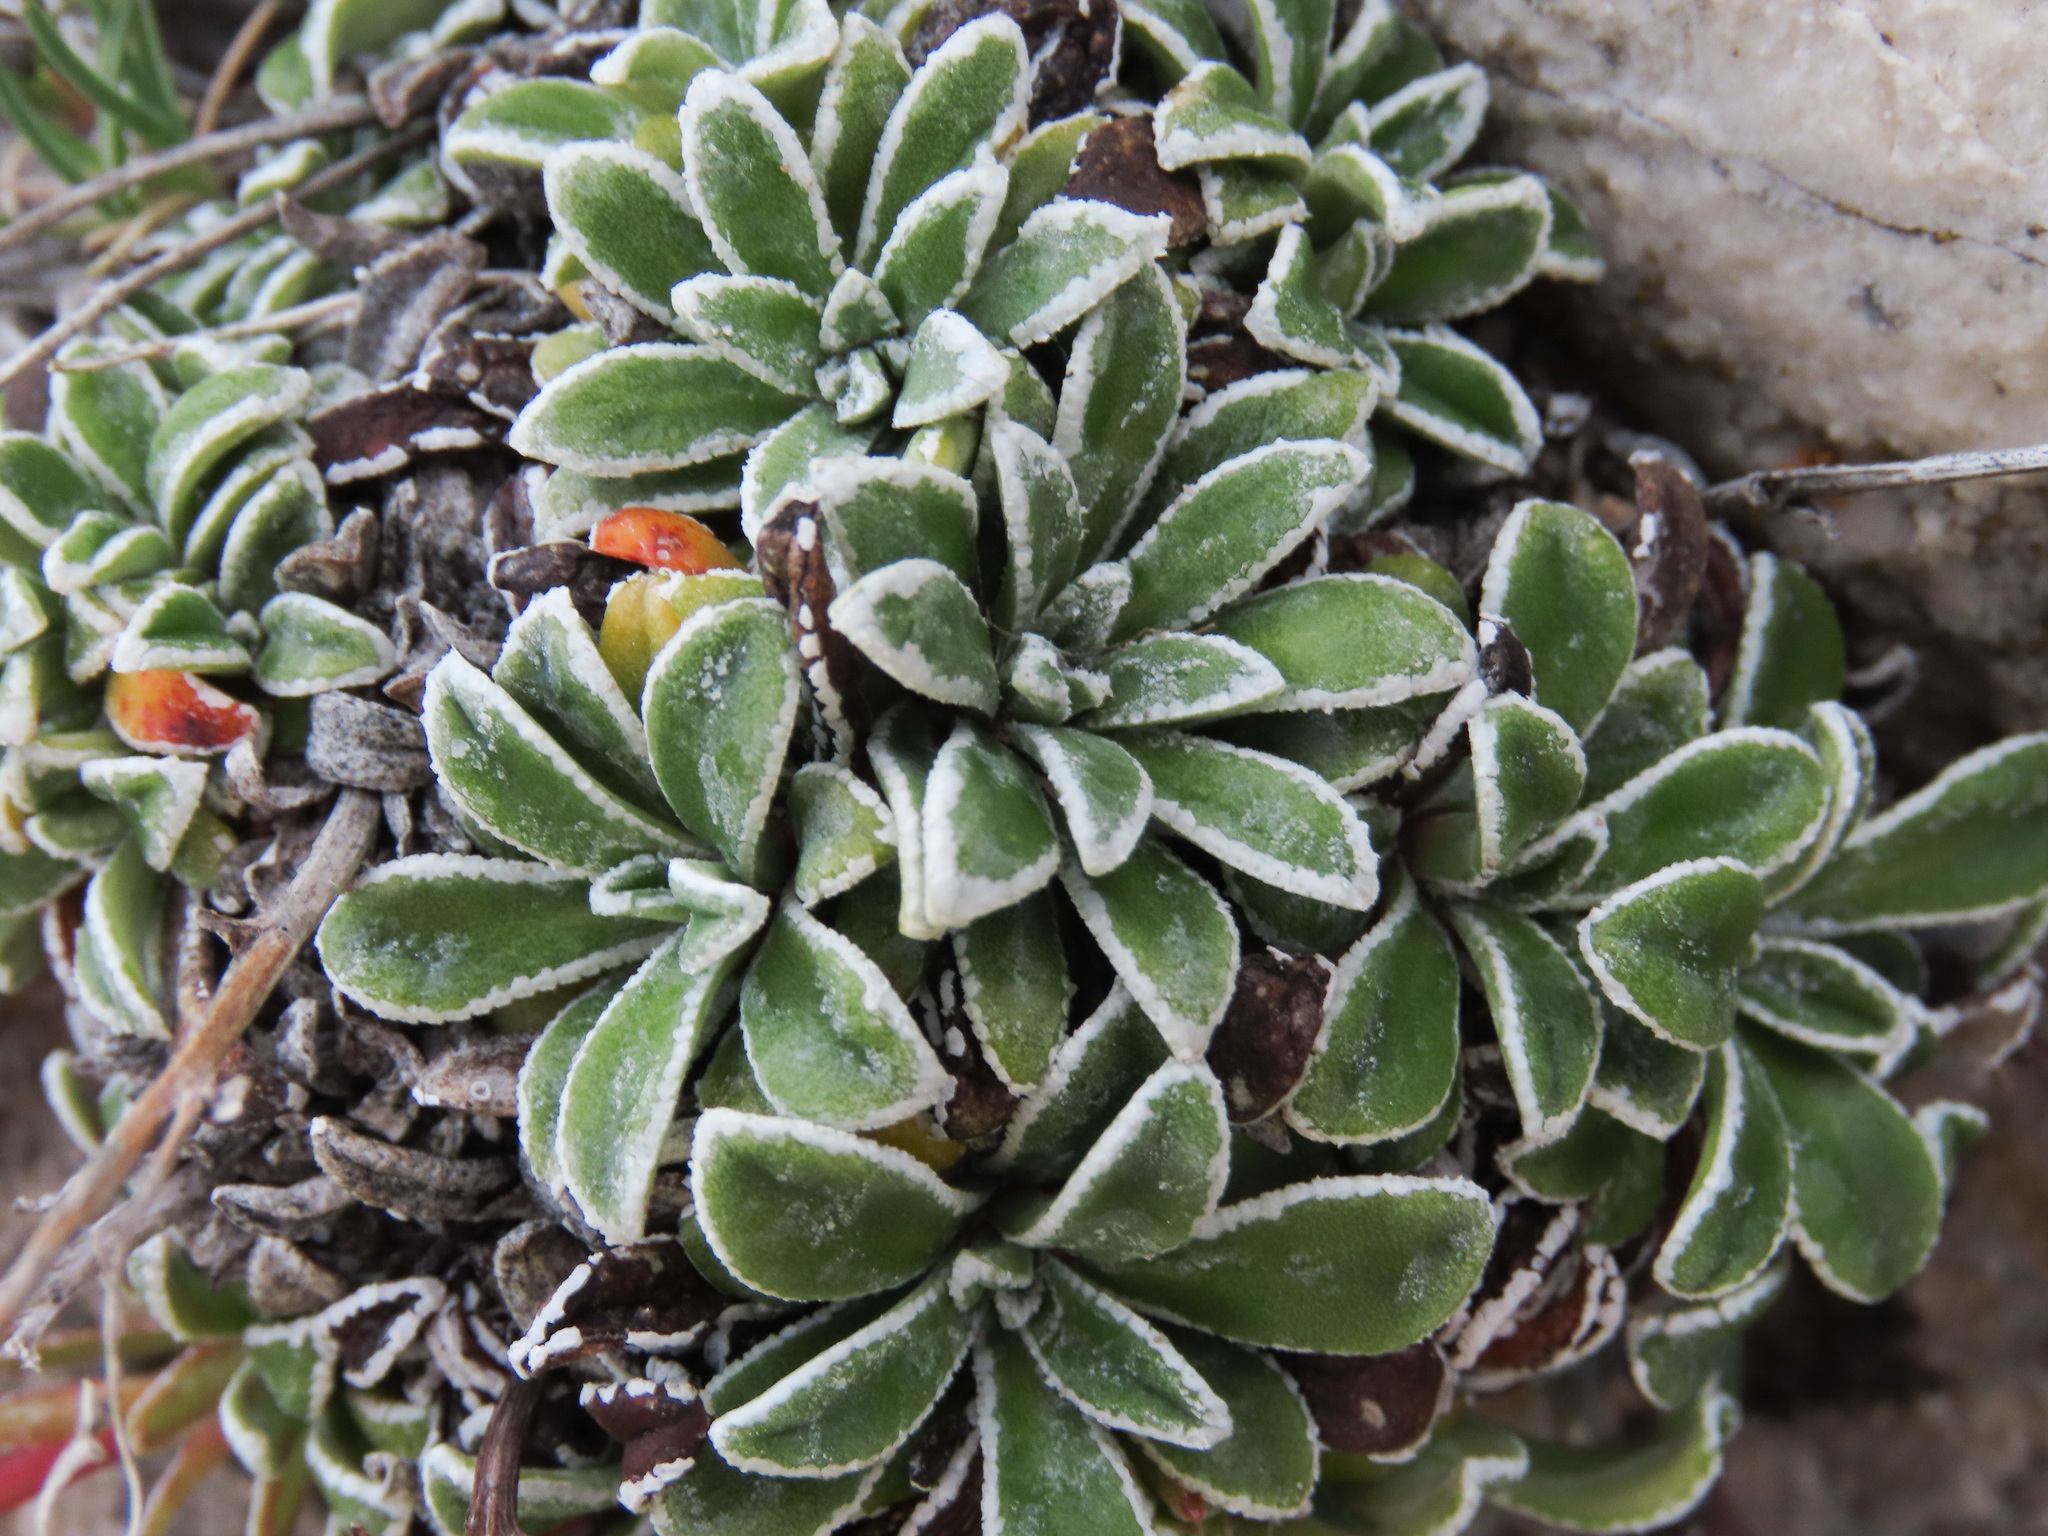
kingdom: Plantae
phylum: Tracheophyta
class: Magnoliopsida
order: Saxifragales
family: Saxifragaceae
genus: Saxifraga
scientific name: Saxifraga callosa
